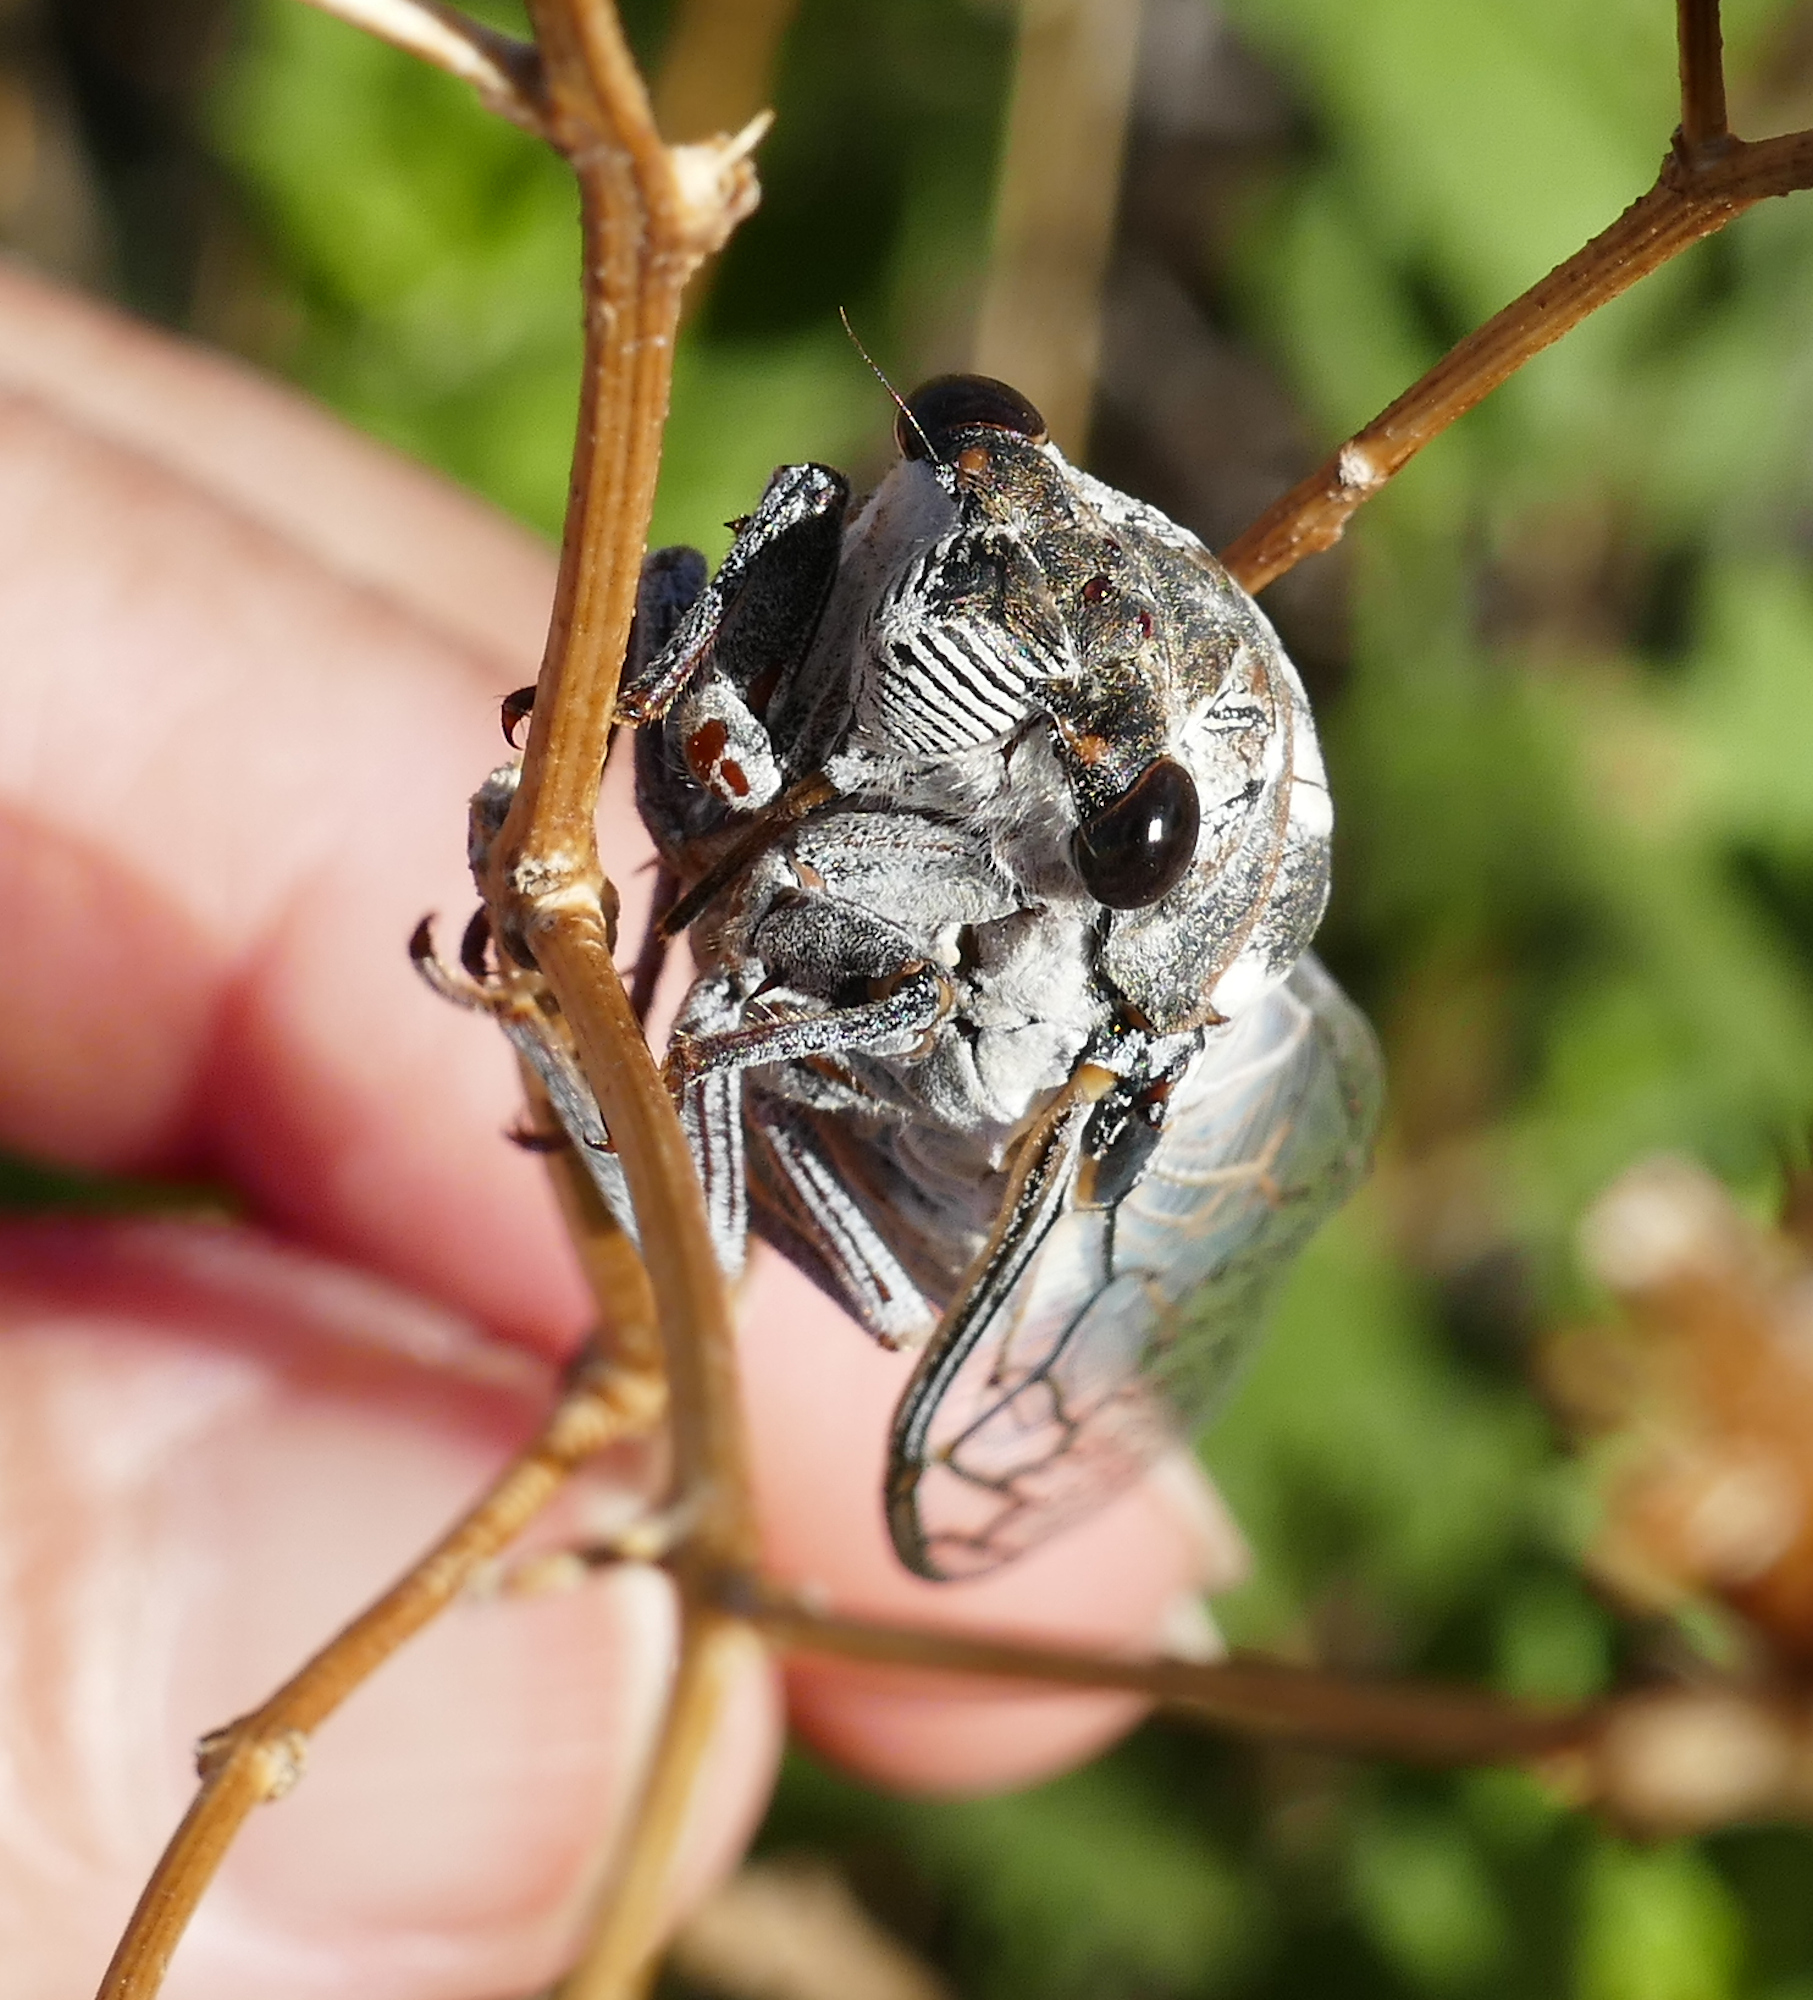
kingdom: Animalia
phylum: Arthropoda
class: Insecta
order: Hemiptera
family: Cicadidae
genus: Hadoa
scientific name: Hadoa townsendii
